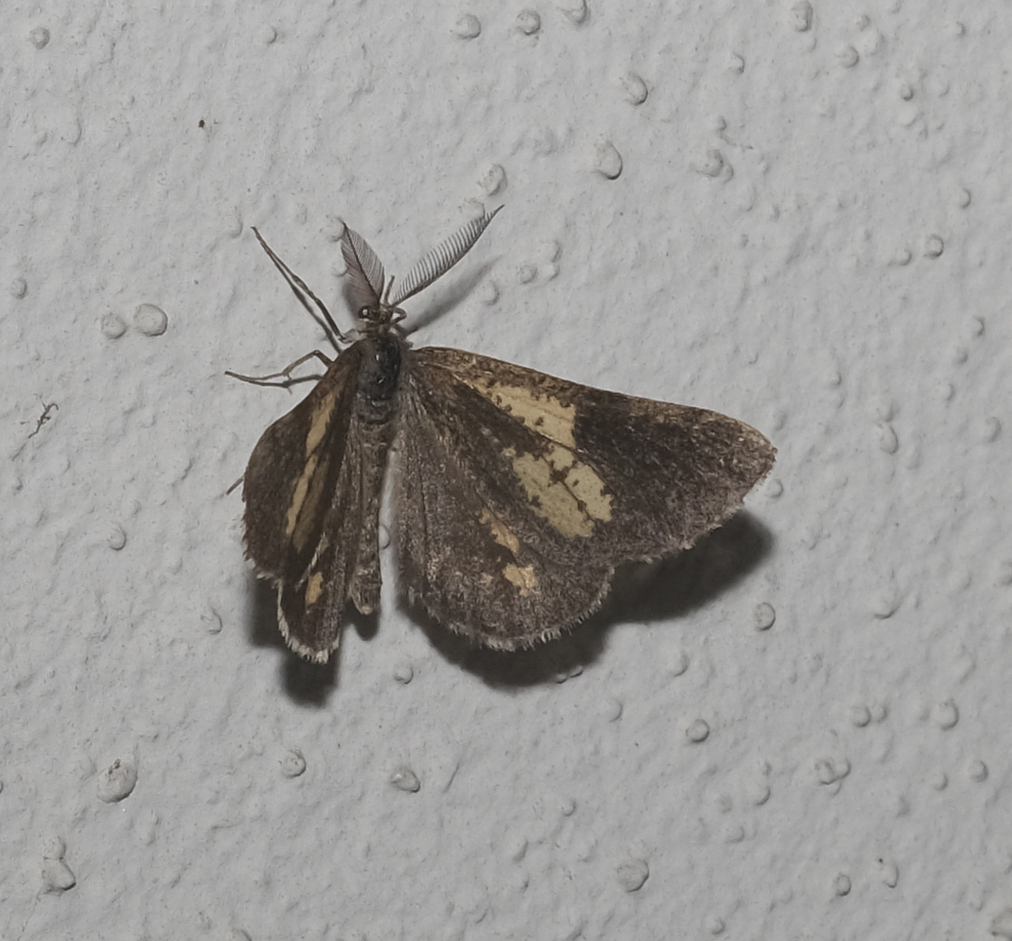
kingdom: Animalia
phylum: Arthropoda
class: Insecta
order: Lepidoptera
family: Geometridae
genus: Bupalus
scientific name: Bupalus piniaria
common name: Bordered white
